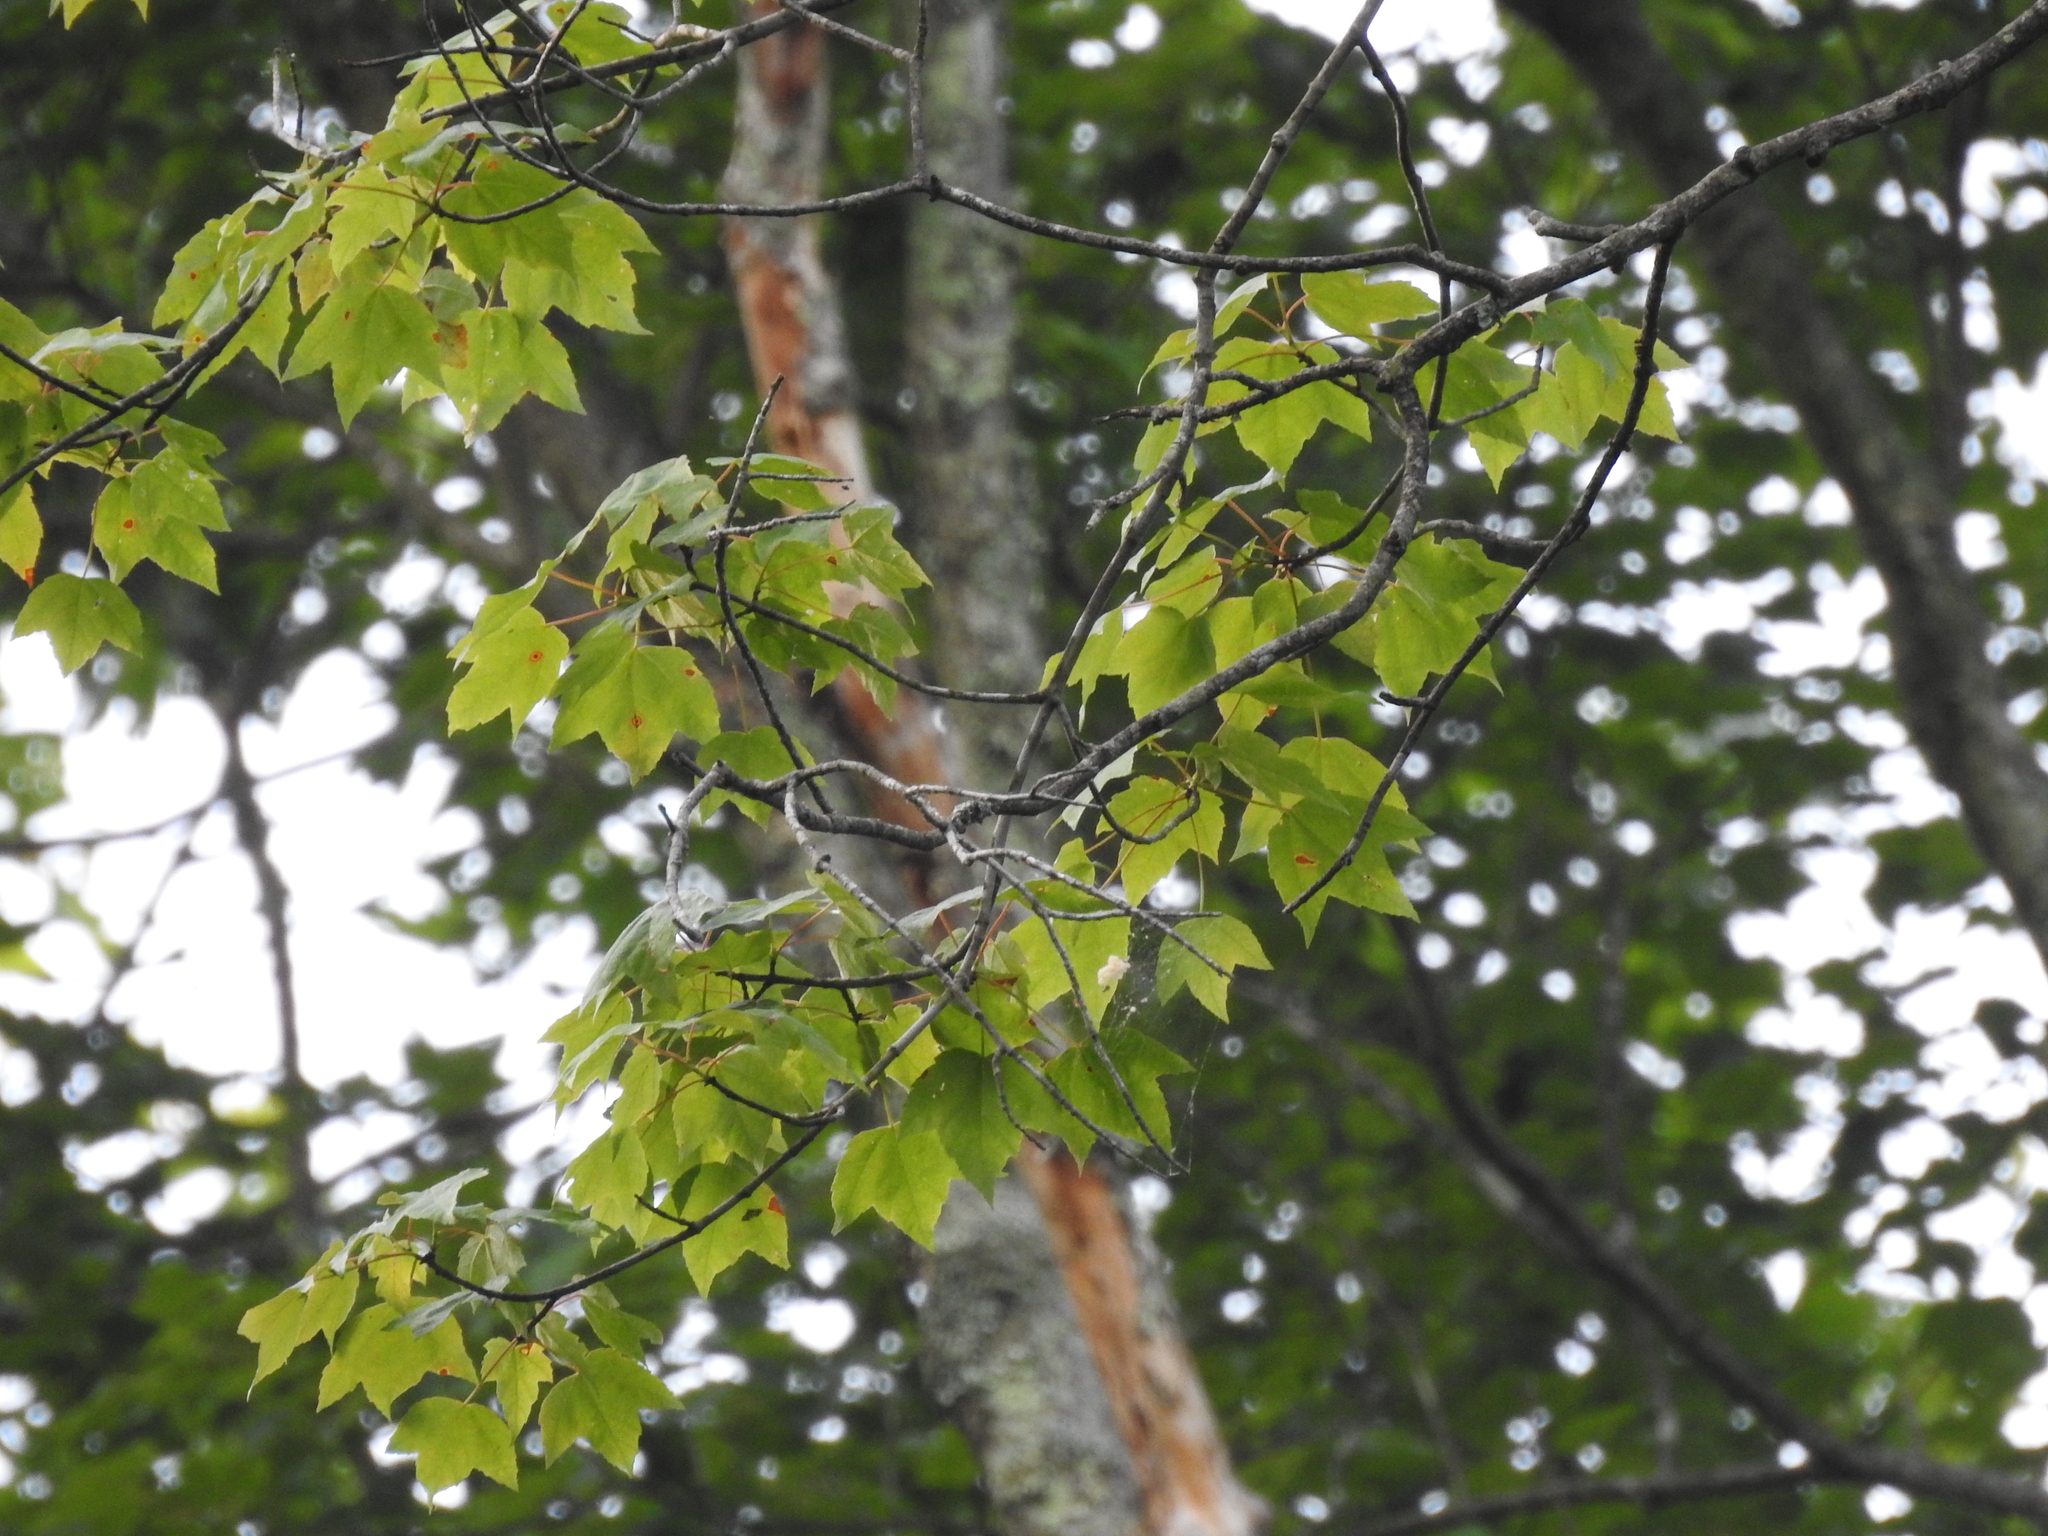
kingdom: Plantae
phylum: Tracheophyta
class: Magnoliopsida
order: Sapindales
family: Sapindaceae
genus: Acer
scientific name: Acer rubrum
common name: Red maple
